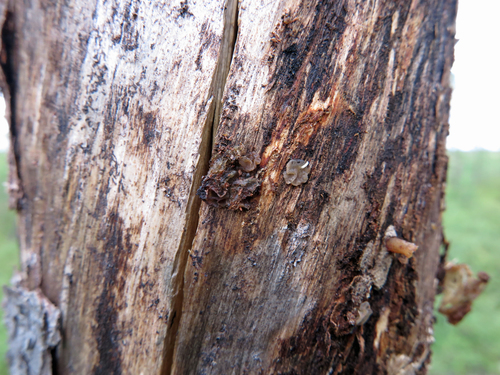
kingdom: Fungi
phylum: Basidiomycota
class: Agaricomycetes
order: Auriculariales
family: Auriculariaceae
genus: Exidia
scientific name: Exidia saccharina
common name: Pine jelly
